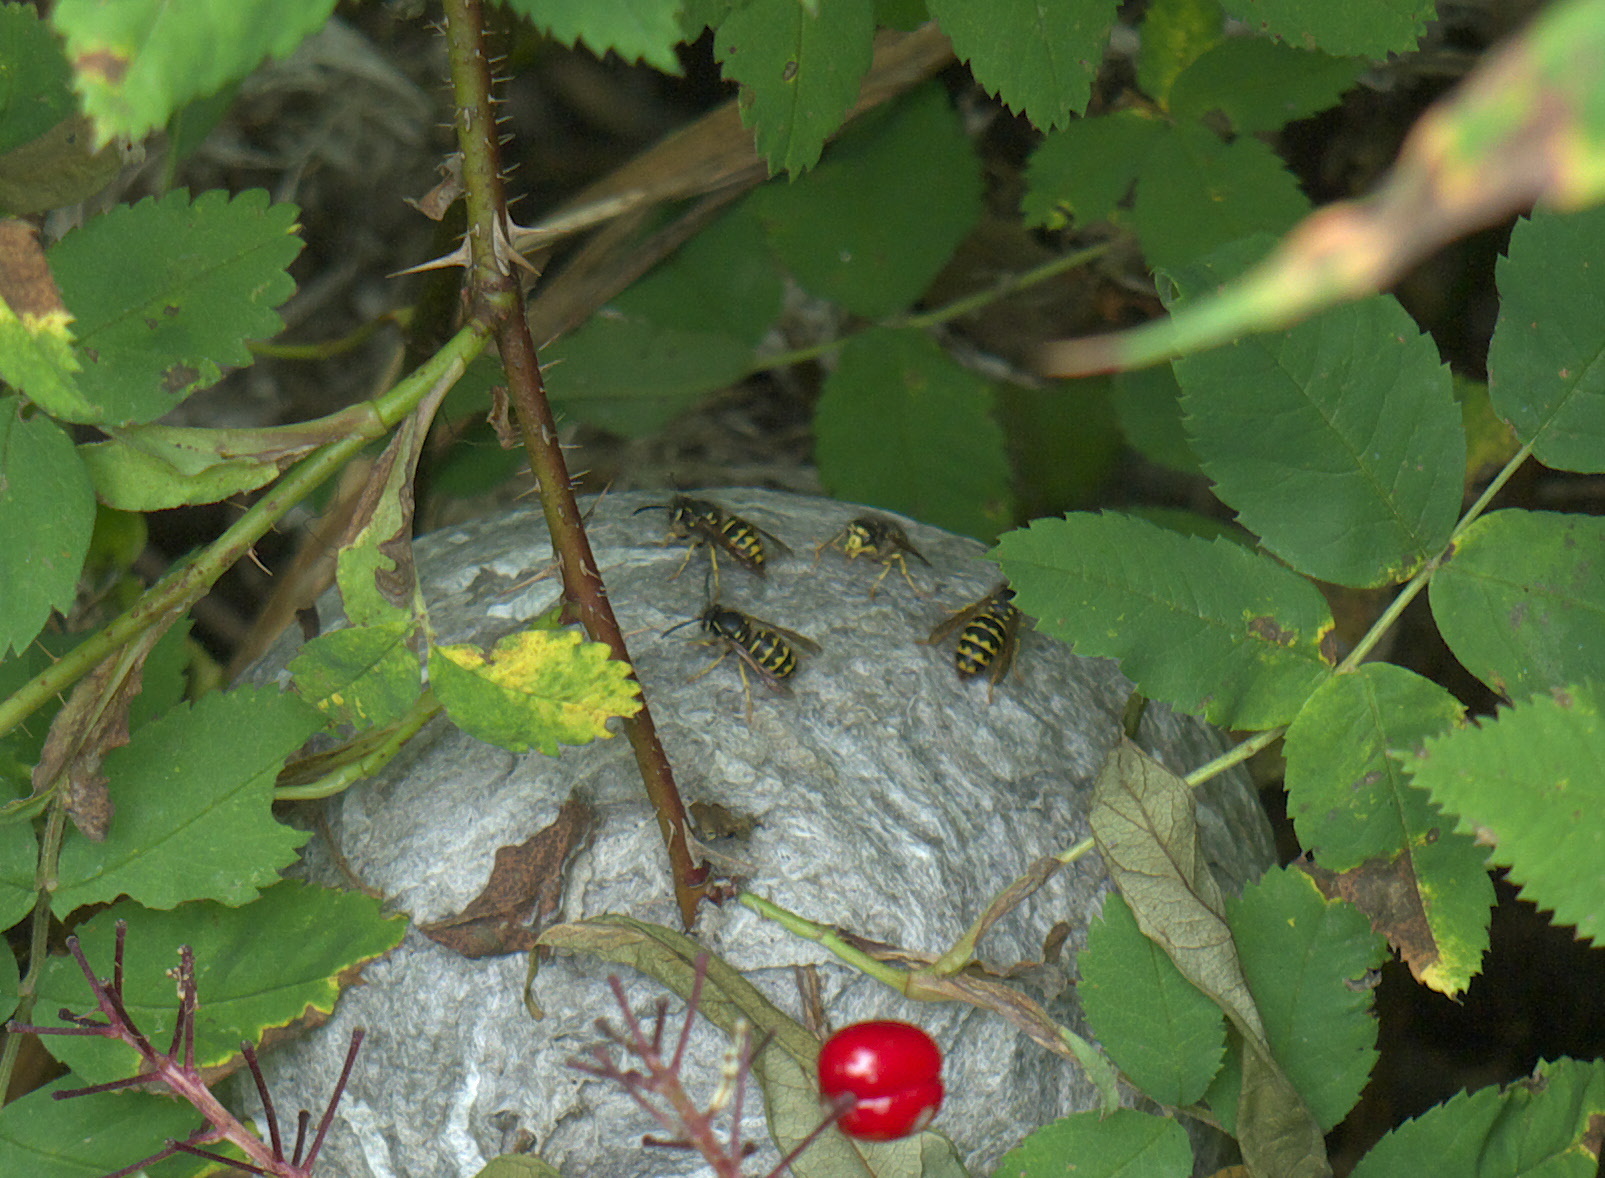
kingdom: Animalia
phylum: Arthropoda
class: Insecta
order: Hymenoptera
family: Vespidae
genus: Dolichovespula
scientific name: Dolichovespula arenaria
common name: Aerial yellowjacket
